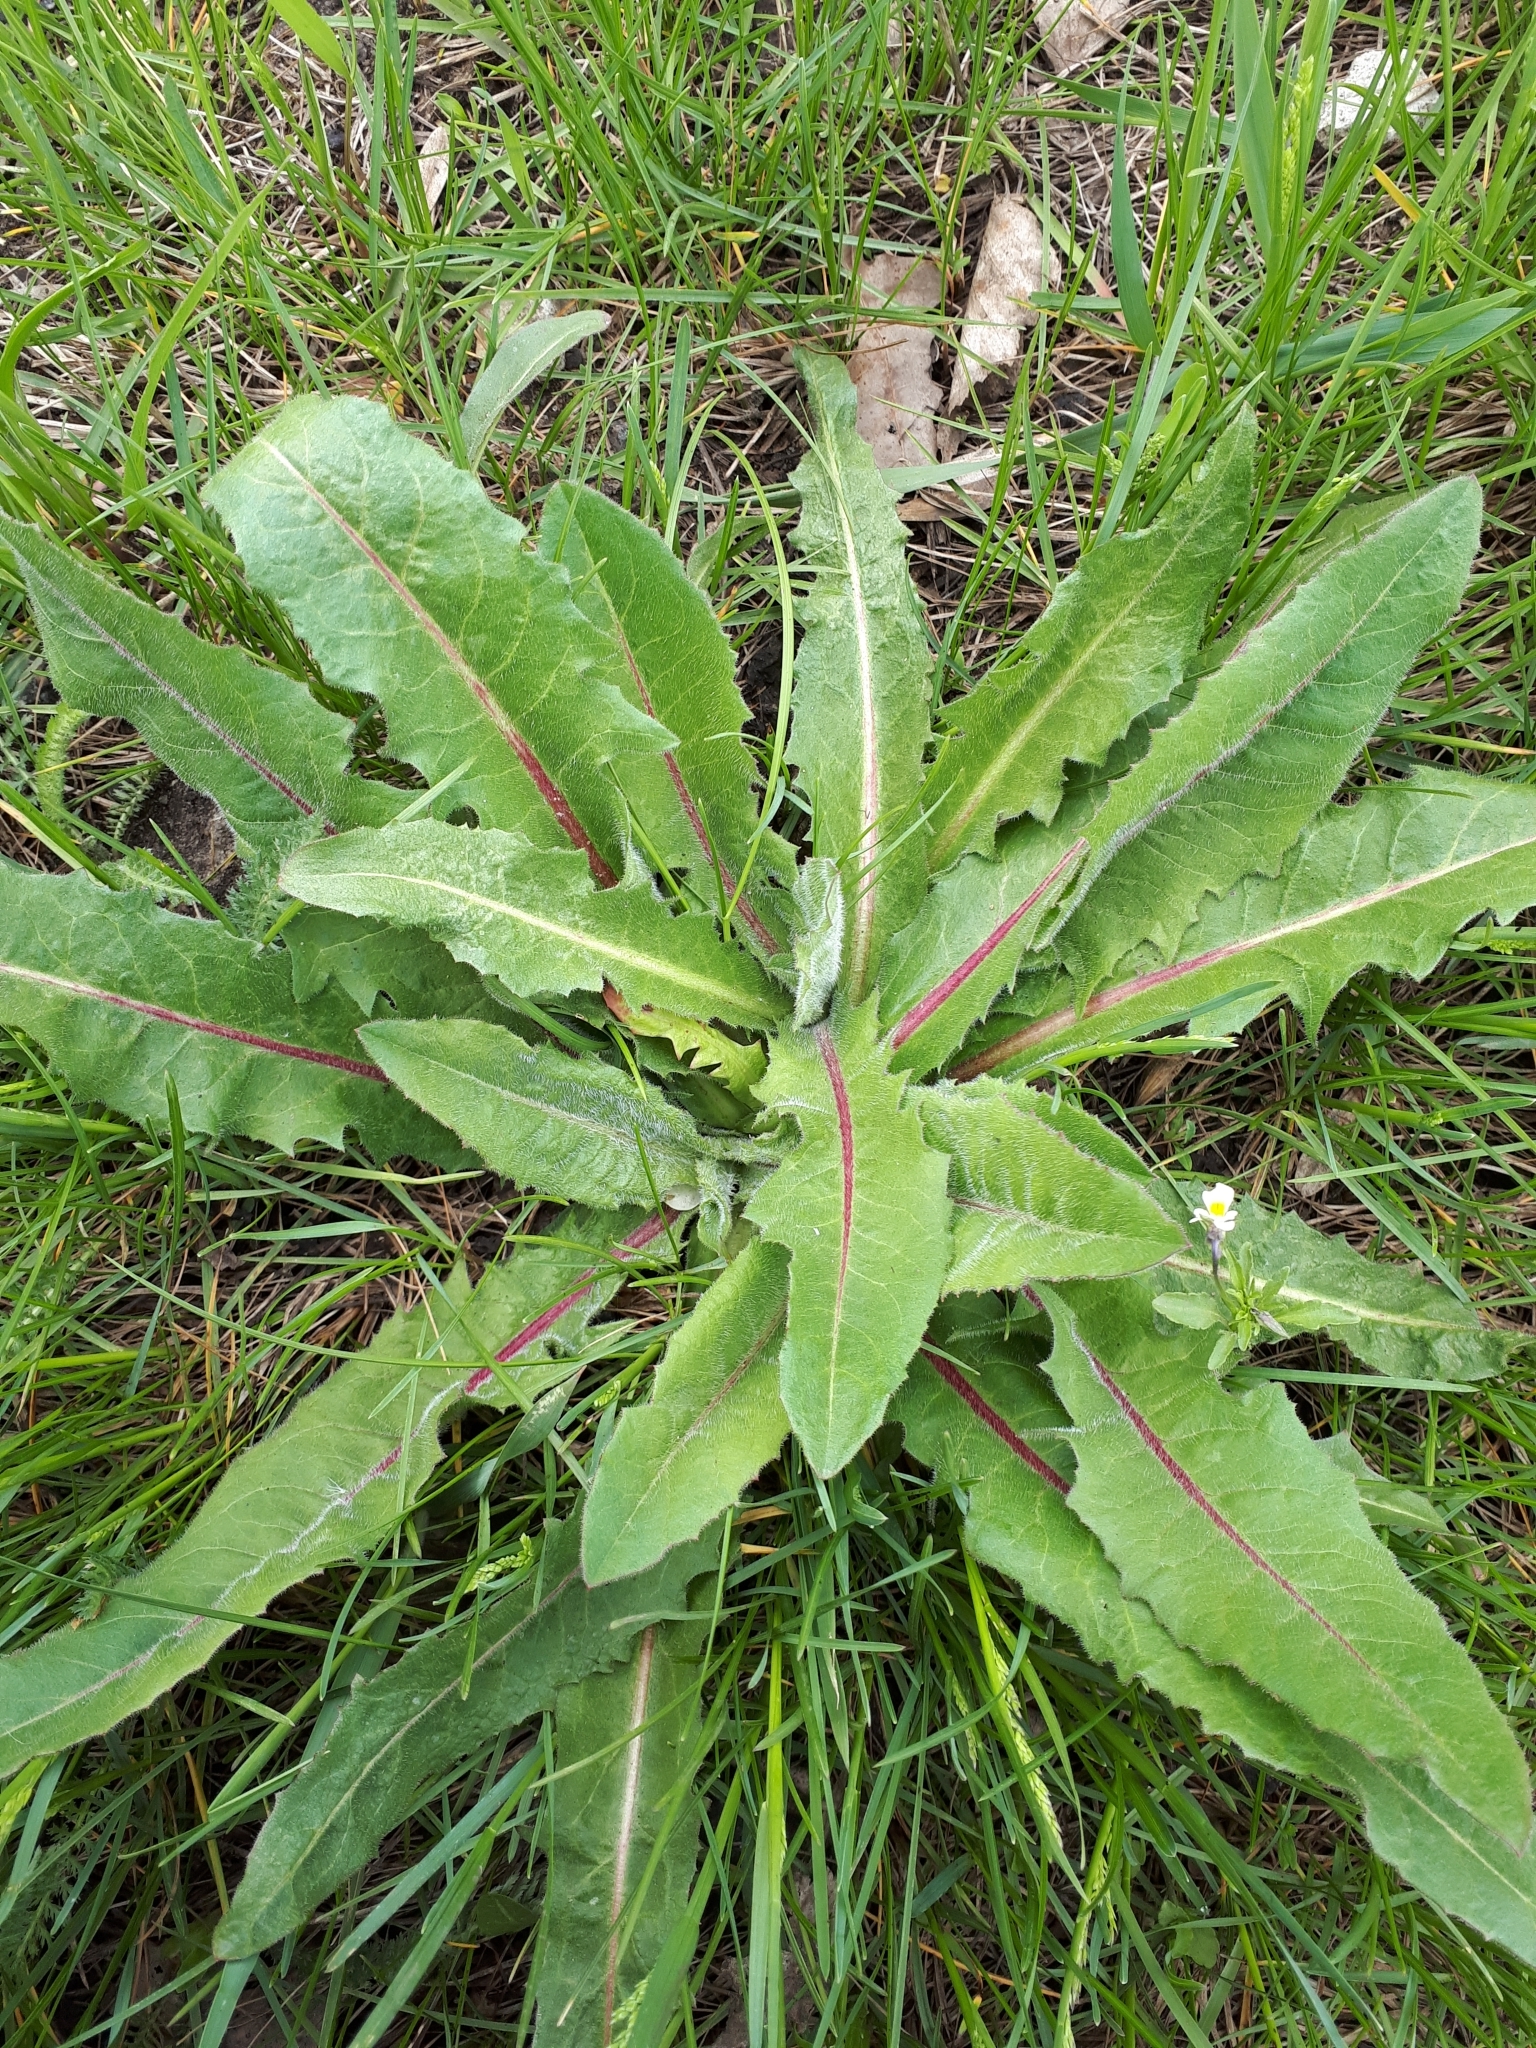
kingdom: Plantae
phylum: Tracheophyta
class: Magnoliopsida
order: Asterales
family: Asteraceae
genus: Cichorium
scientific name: Cichorium intybus
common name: Chicory
